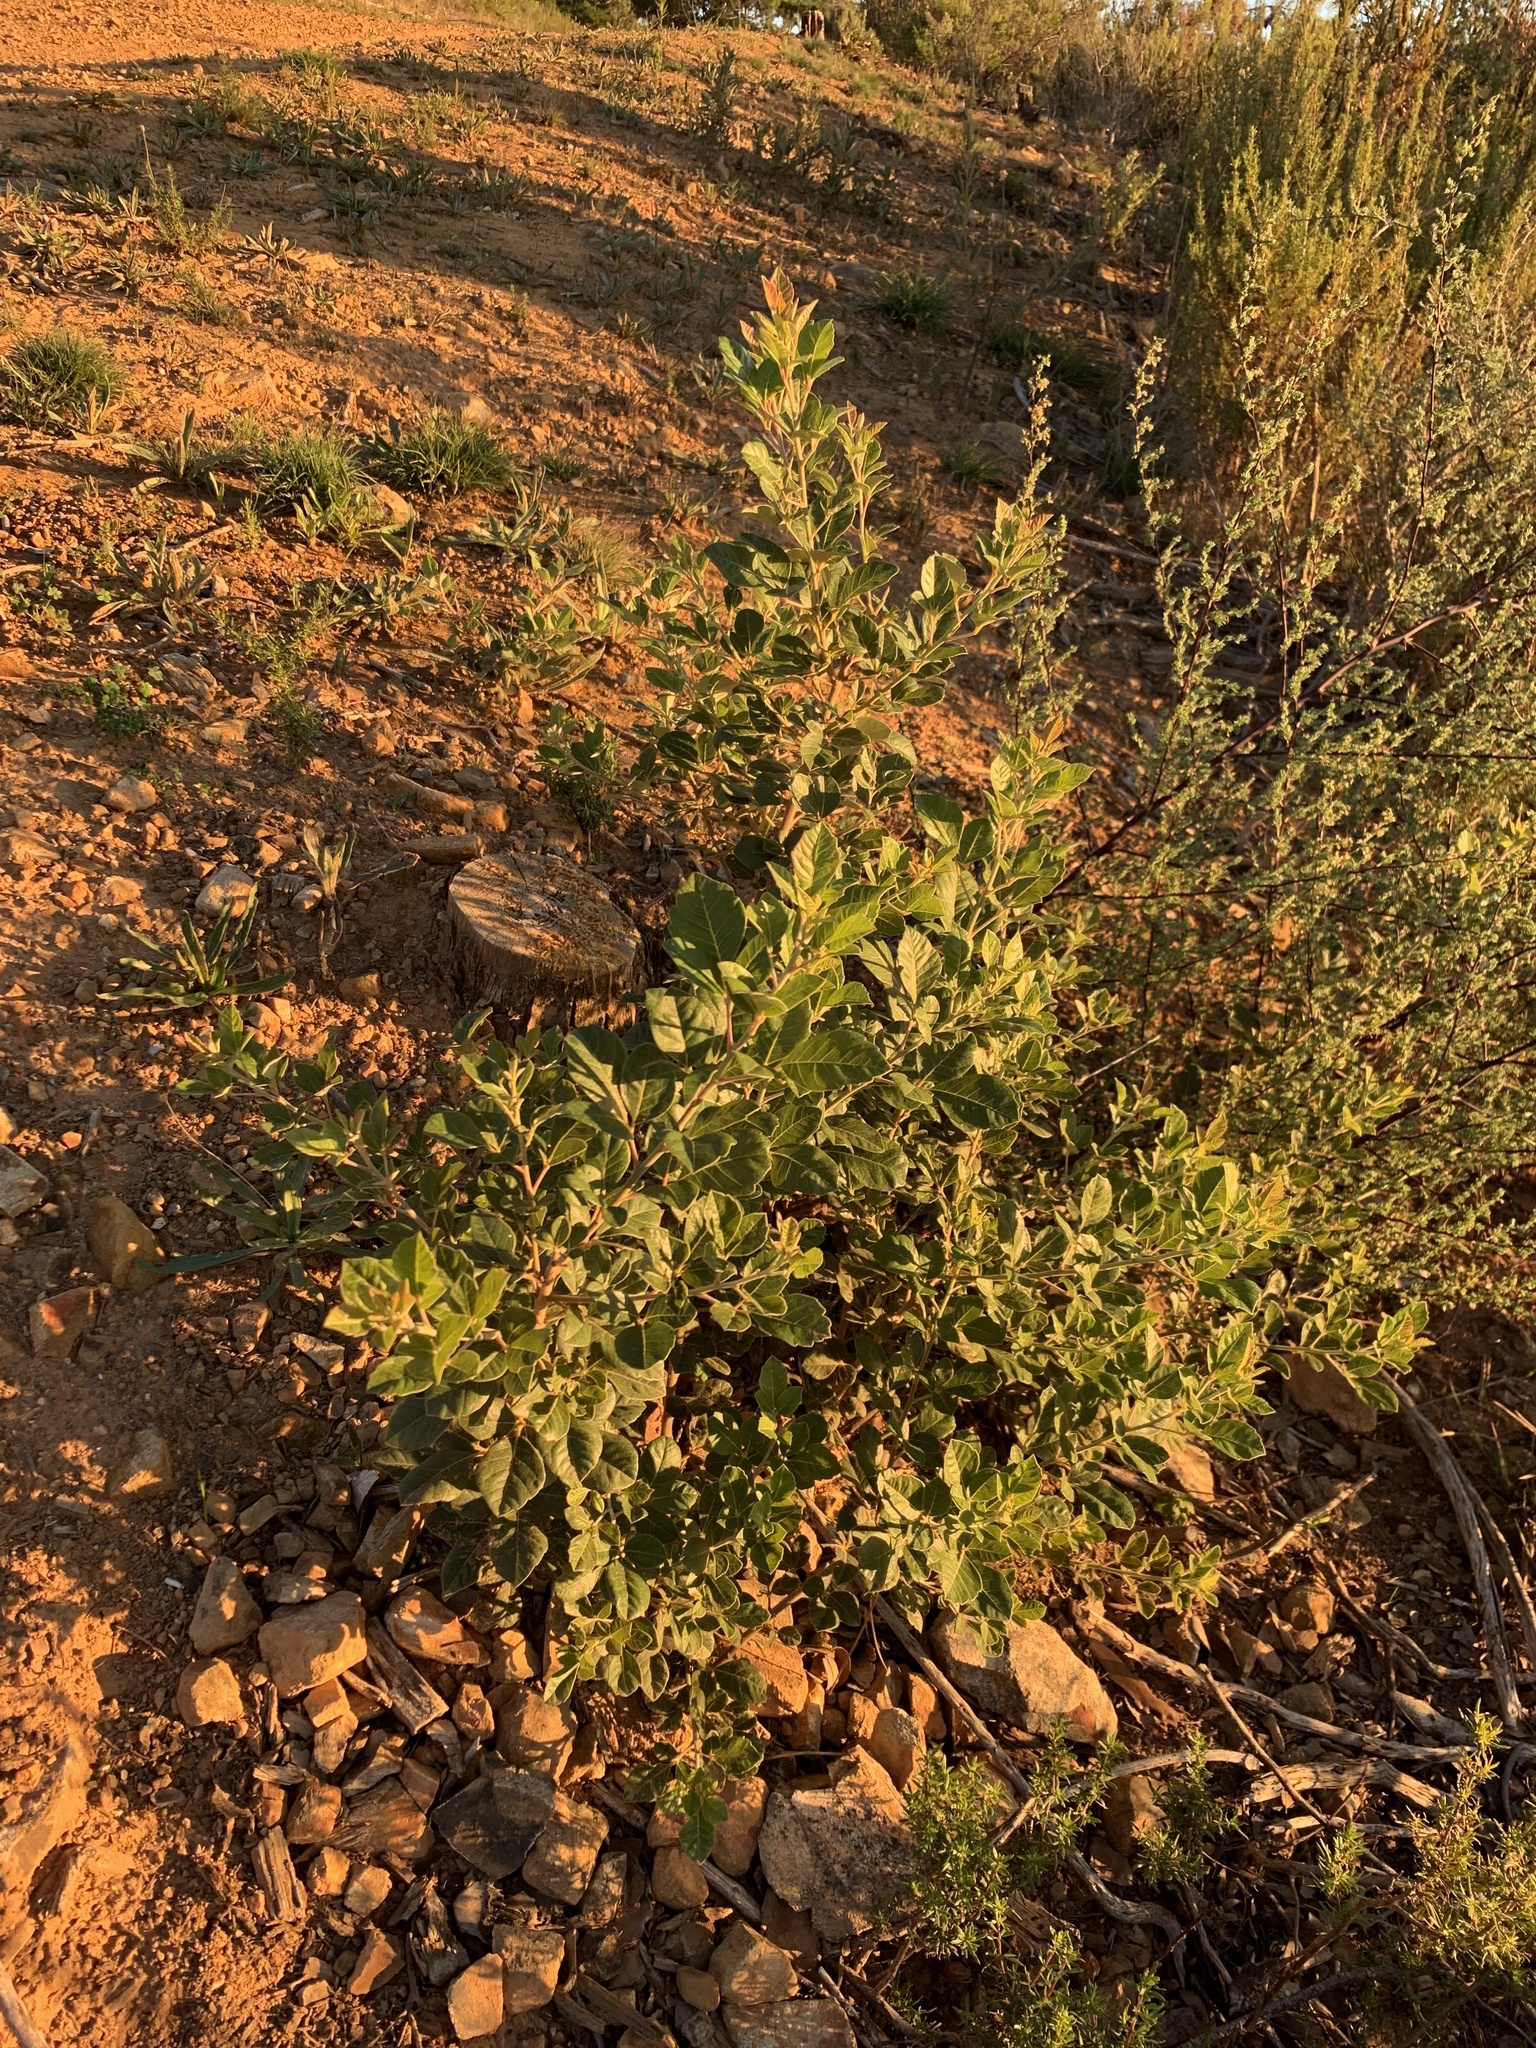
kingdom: Plantae
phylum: Tracheophyta
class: Magnoliopsida
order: Sapindales
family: Anacardiaceae
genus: Searsia
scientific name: Searsia tomentosa
